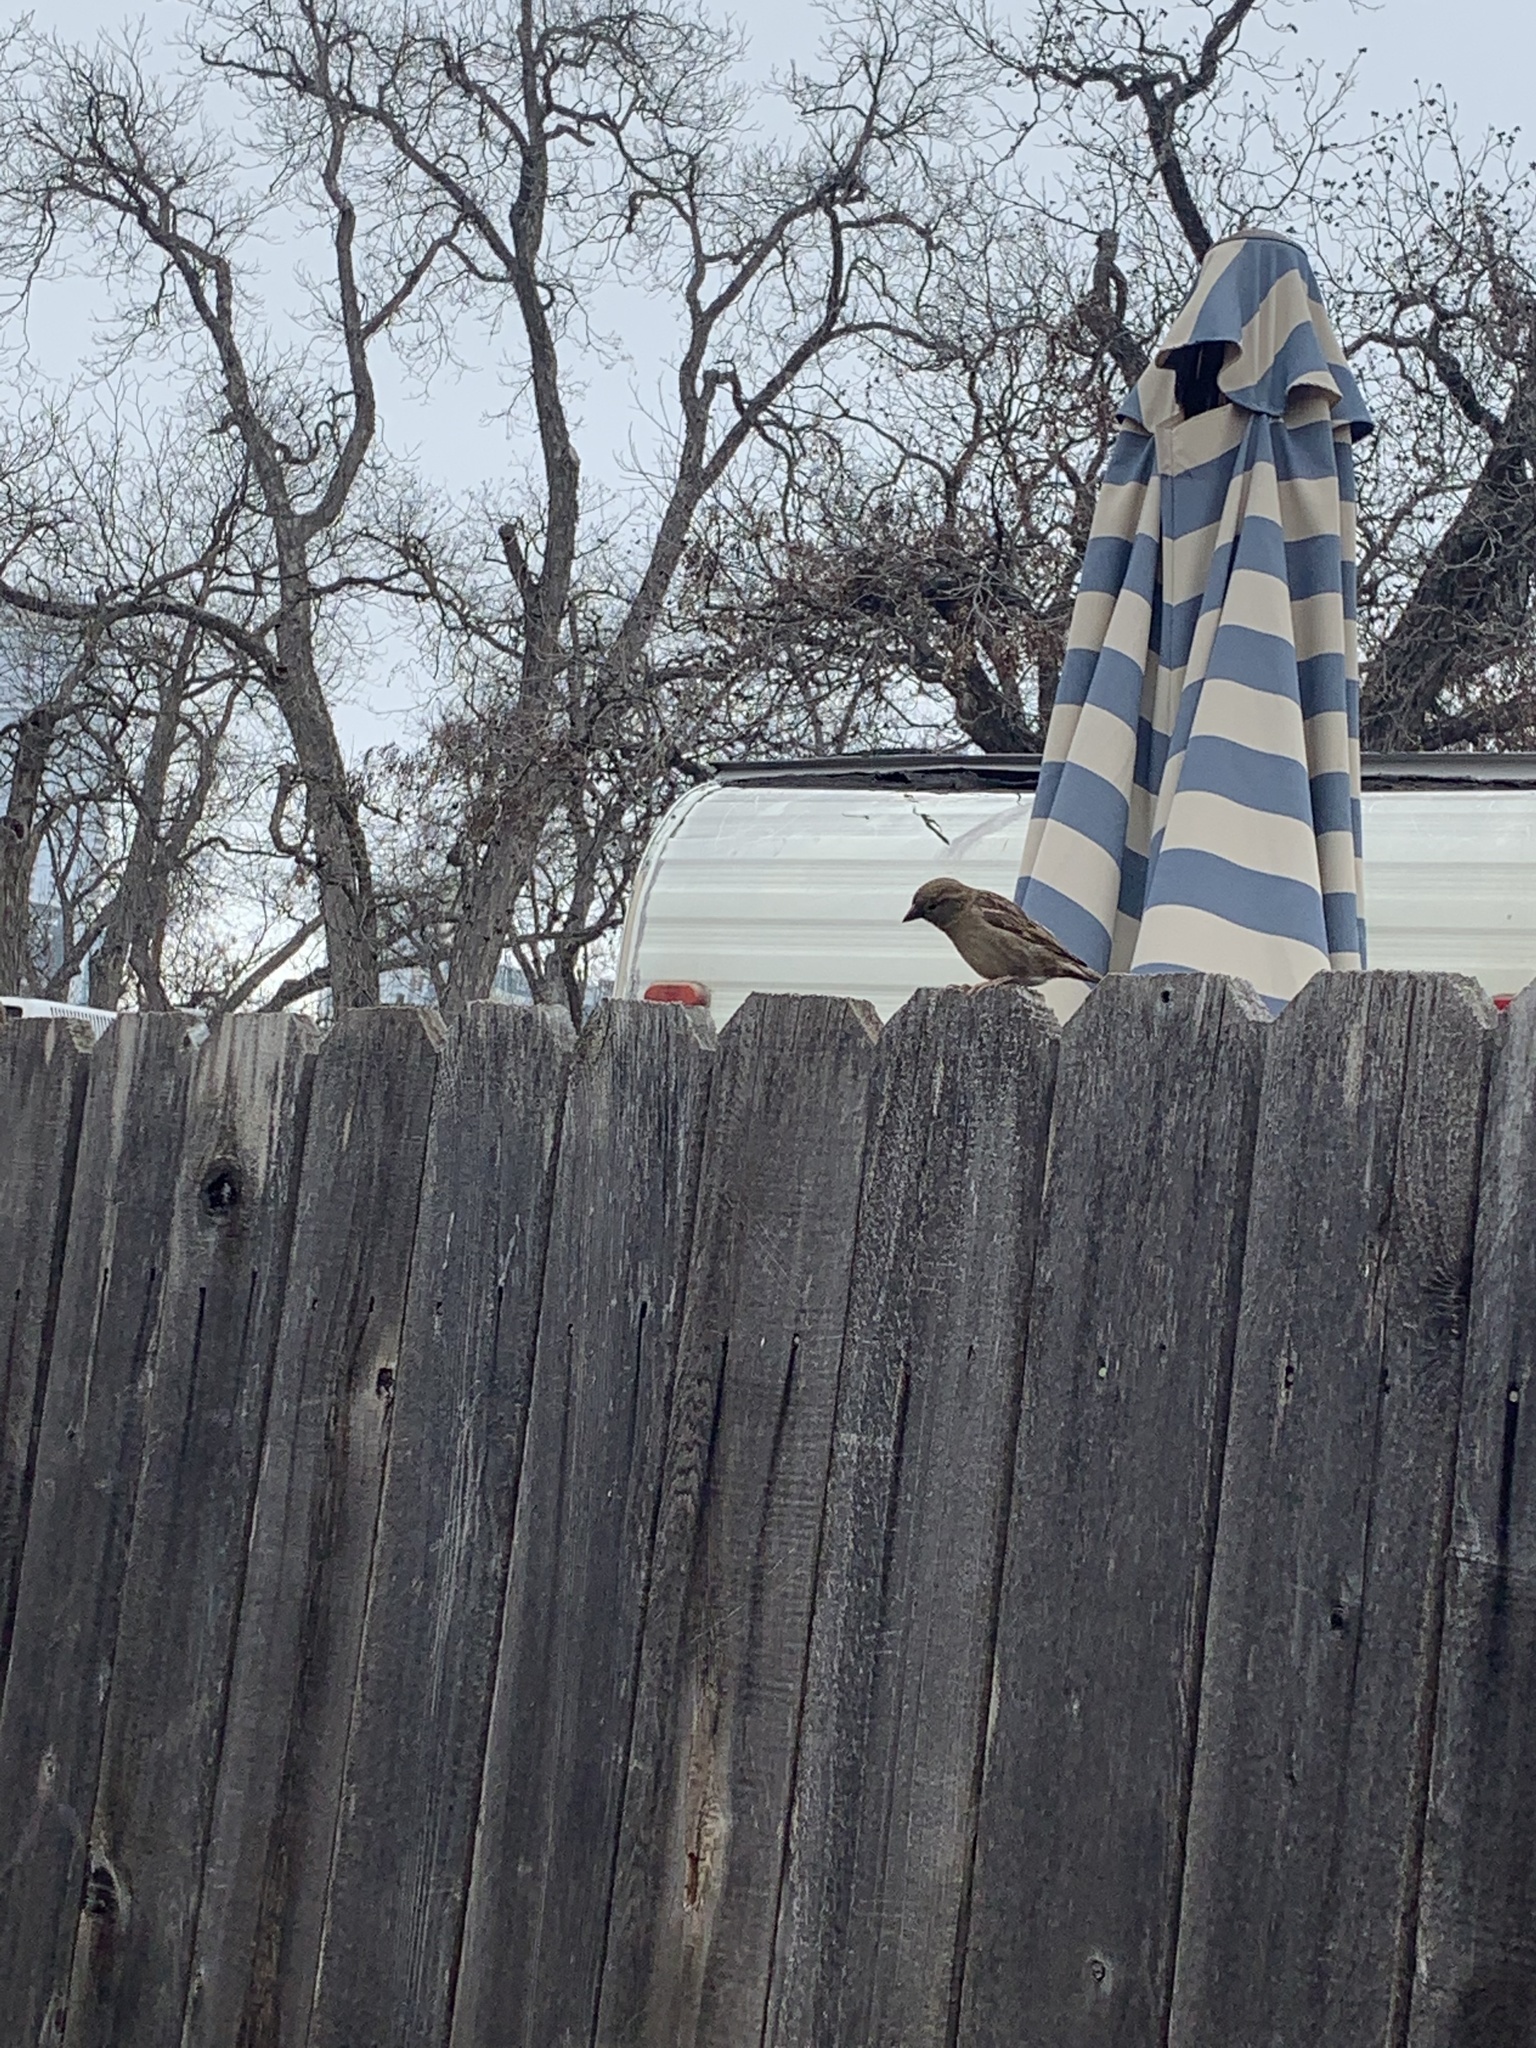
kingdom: Animalia
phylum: Chordata
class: Aves
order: Passeriformes
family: Passeridae
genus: Passer
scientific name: Passer domesticus
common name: House sparrow
